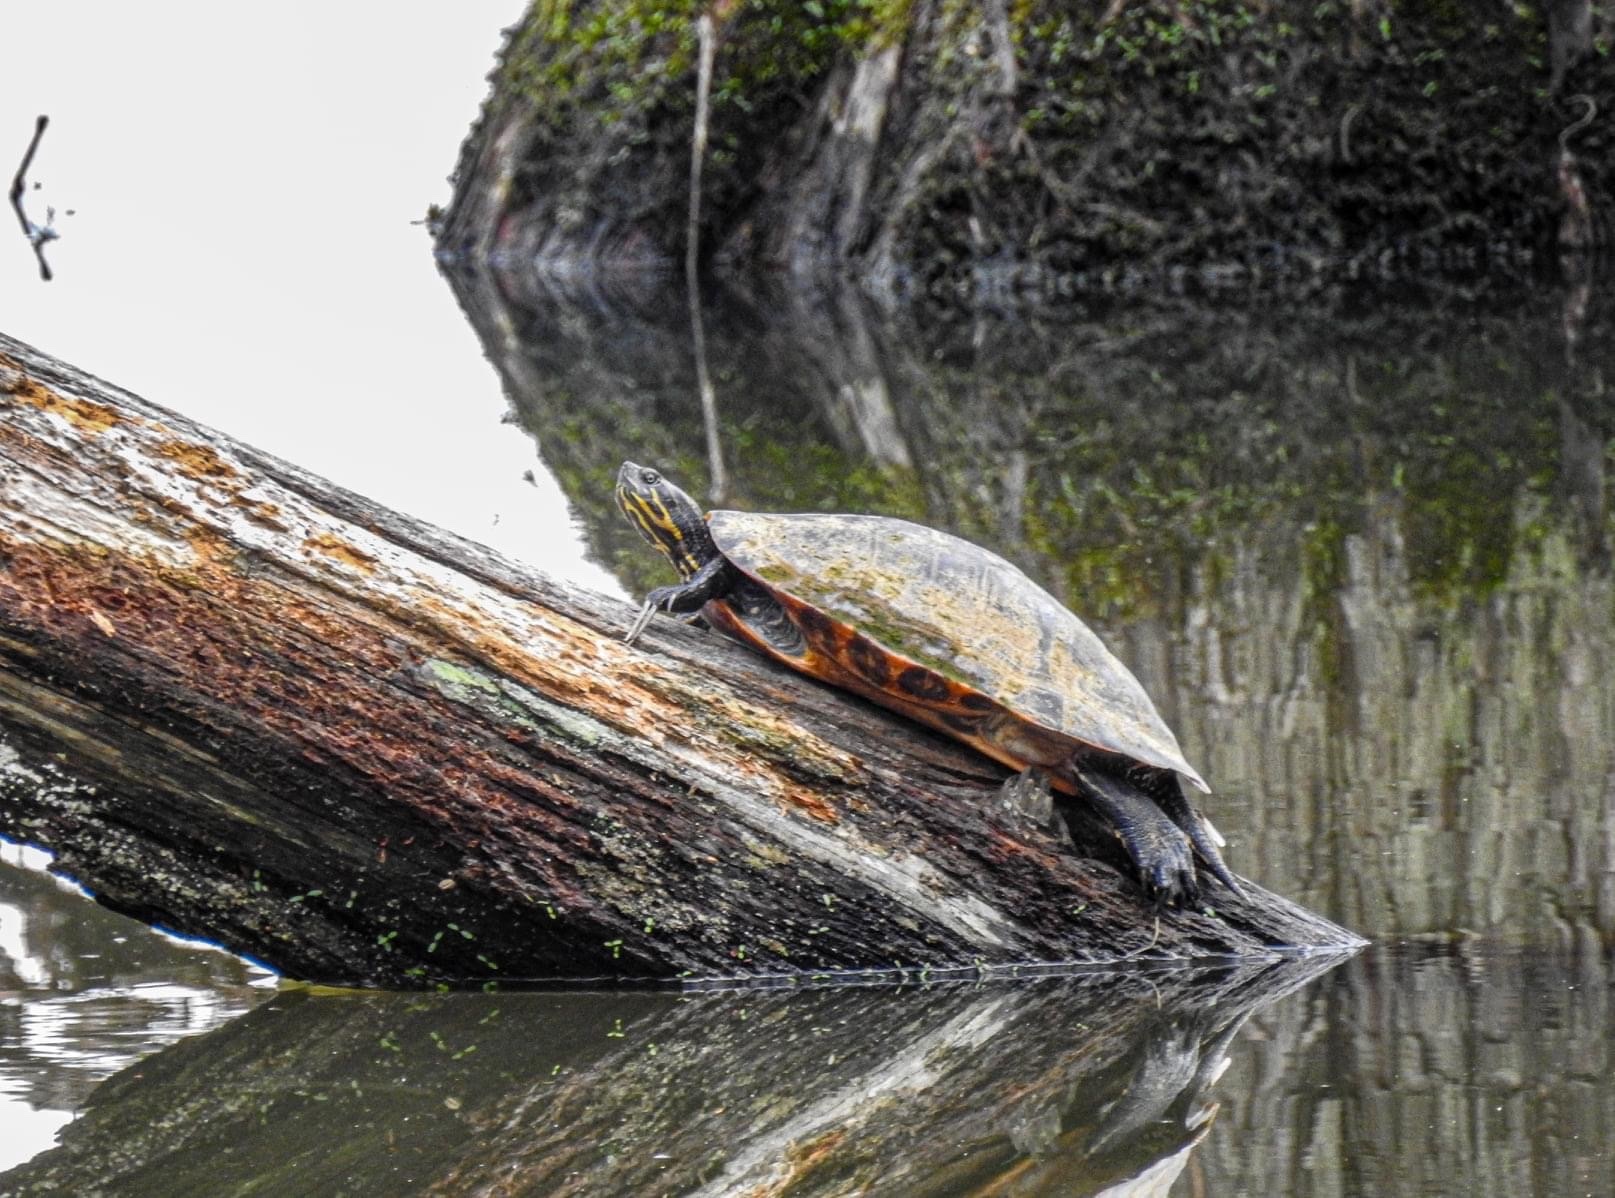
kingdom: Animalia
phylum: Chordata
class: Testudines
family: Emydidae
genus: Pseudemys
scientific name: Pseudemys concinna
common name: Eastern river cooter
